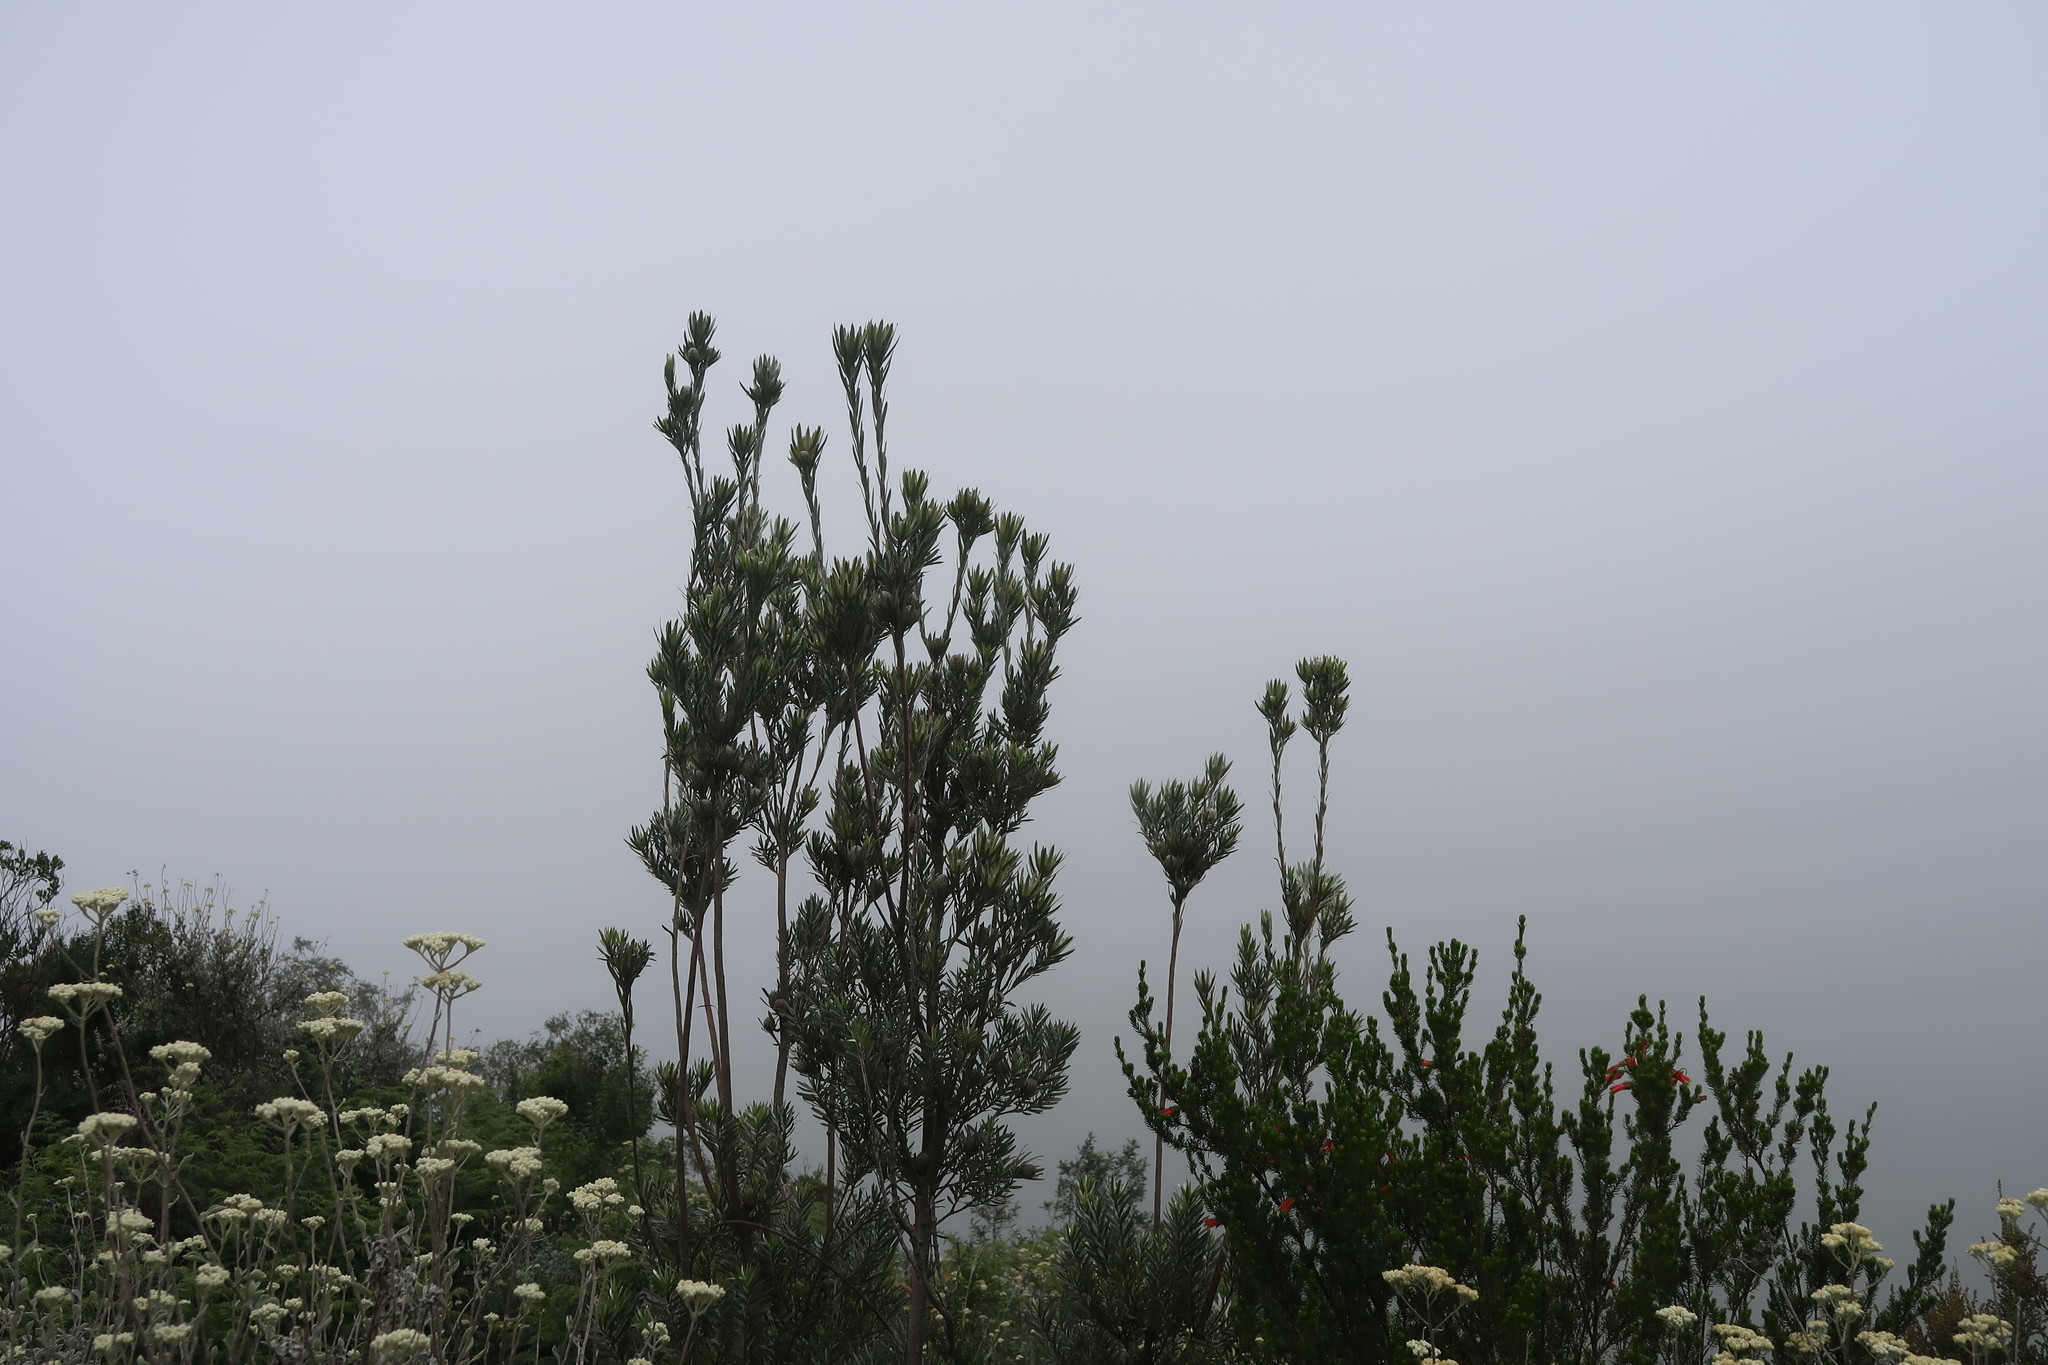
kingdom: Plantae
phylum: Tracheophyta
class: Magnoliopsida
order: Proteales
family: Proteaceae
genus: Leucadendron
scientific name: Leucadendron uliginosum
